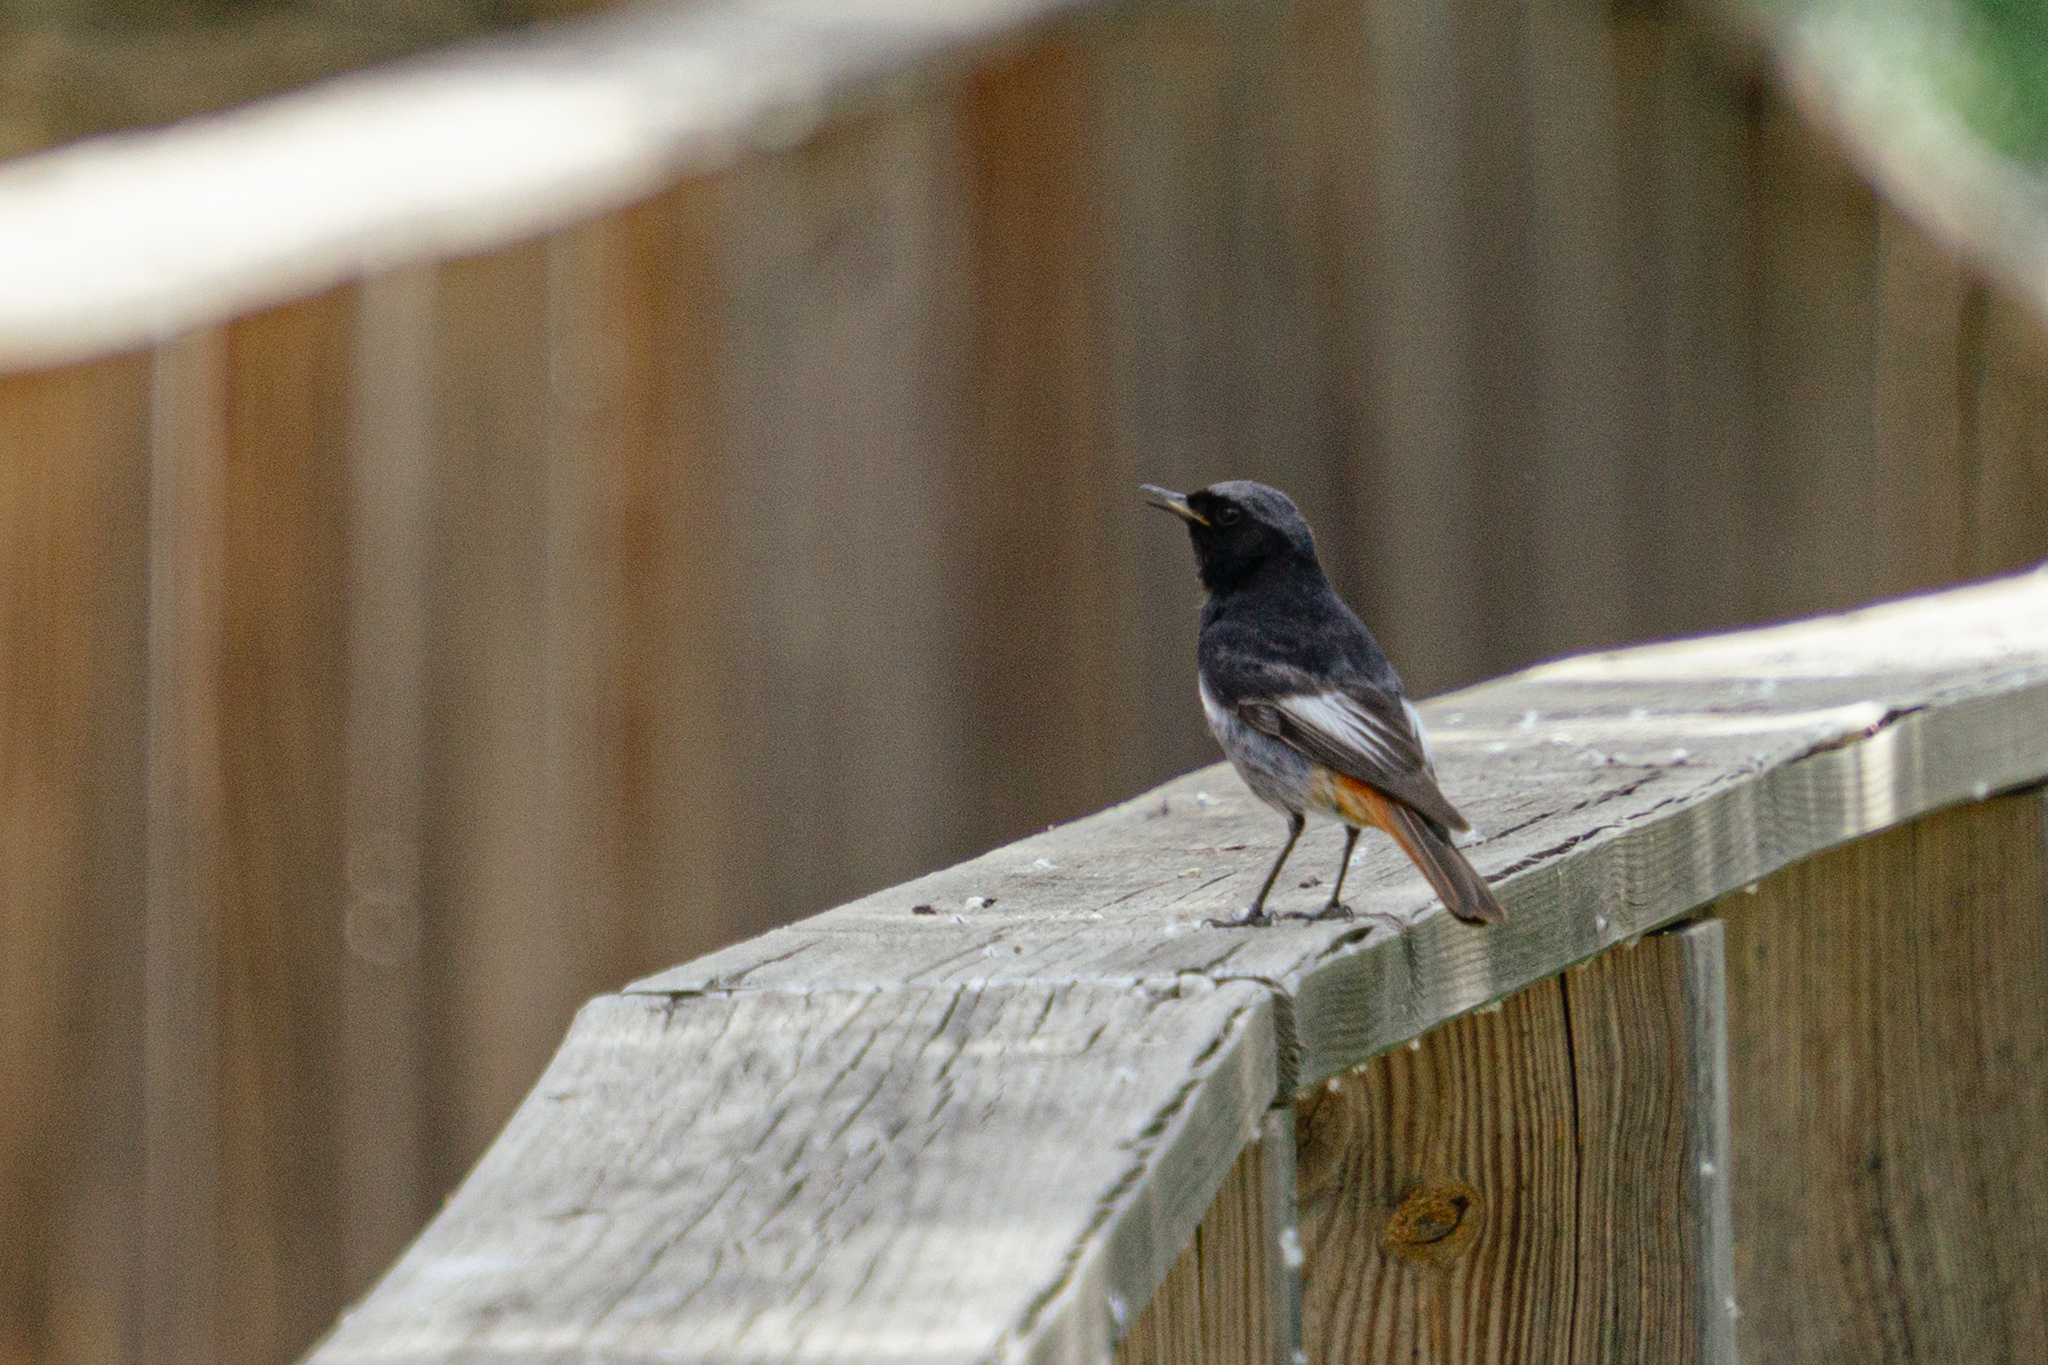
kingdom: Animalia
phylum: Chordata
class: Aves
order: Passeriformes
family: Muscicapidae
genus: Phoenicurus
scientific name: Phoenicurus ochruros
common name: Black redstart
